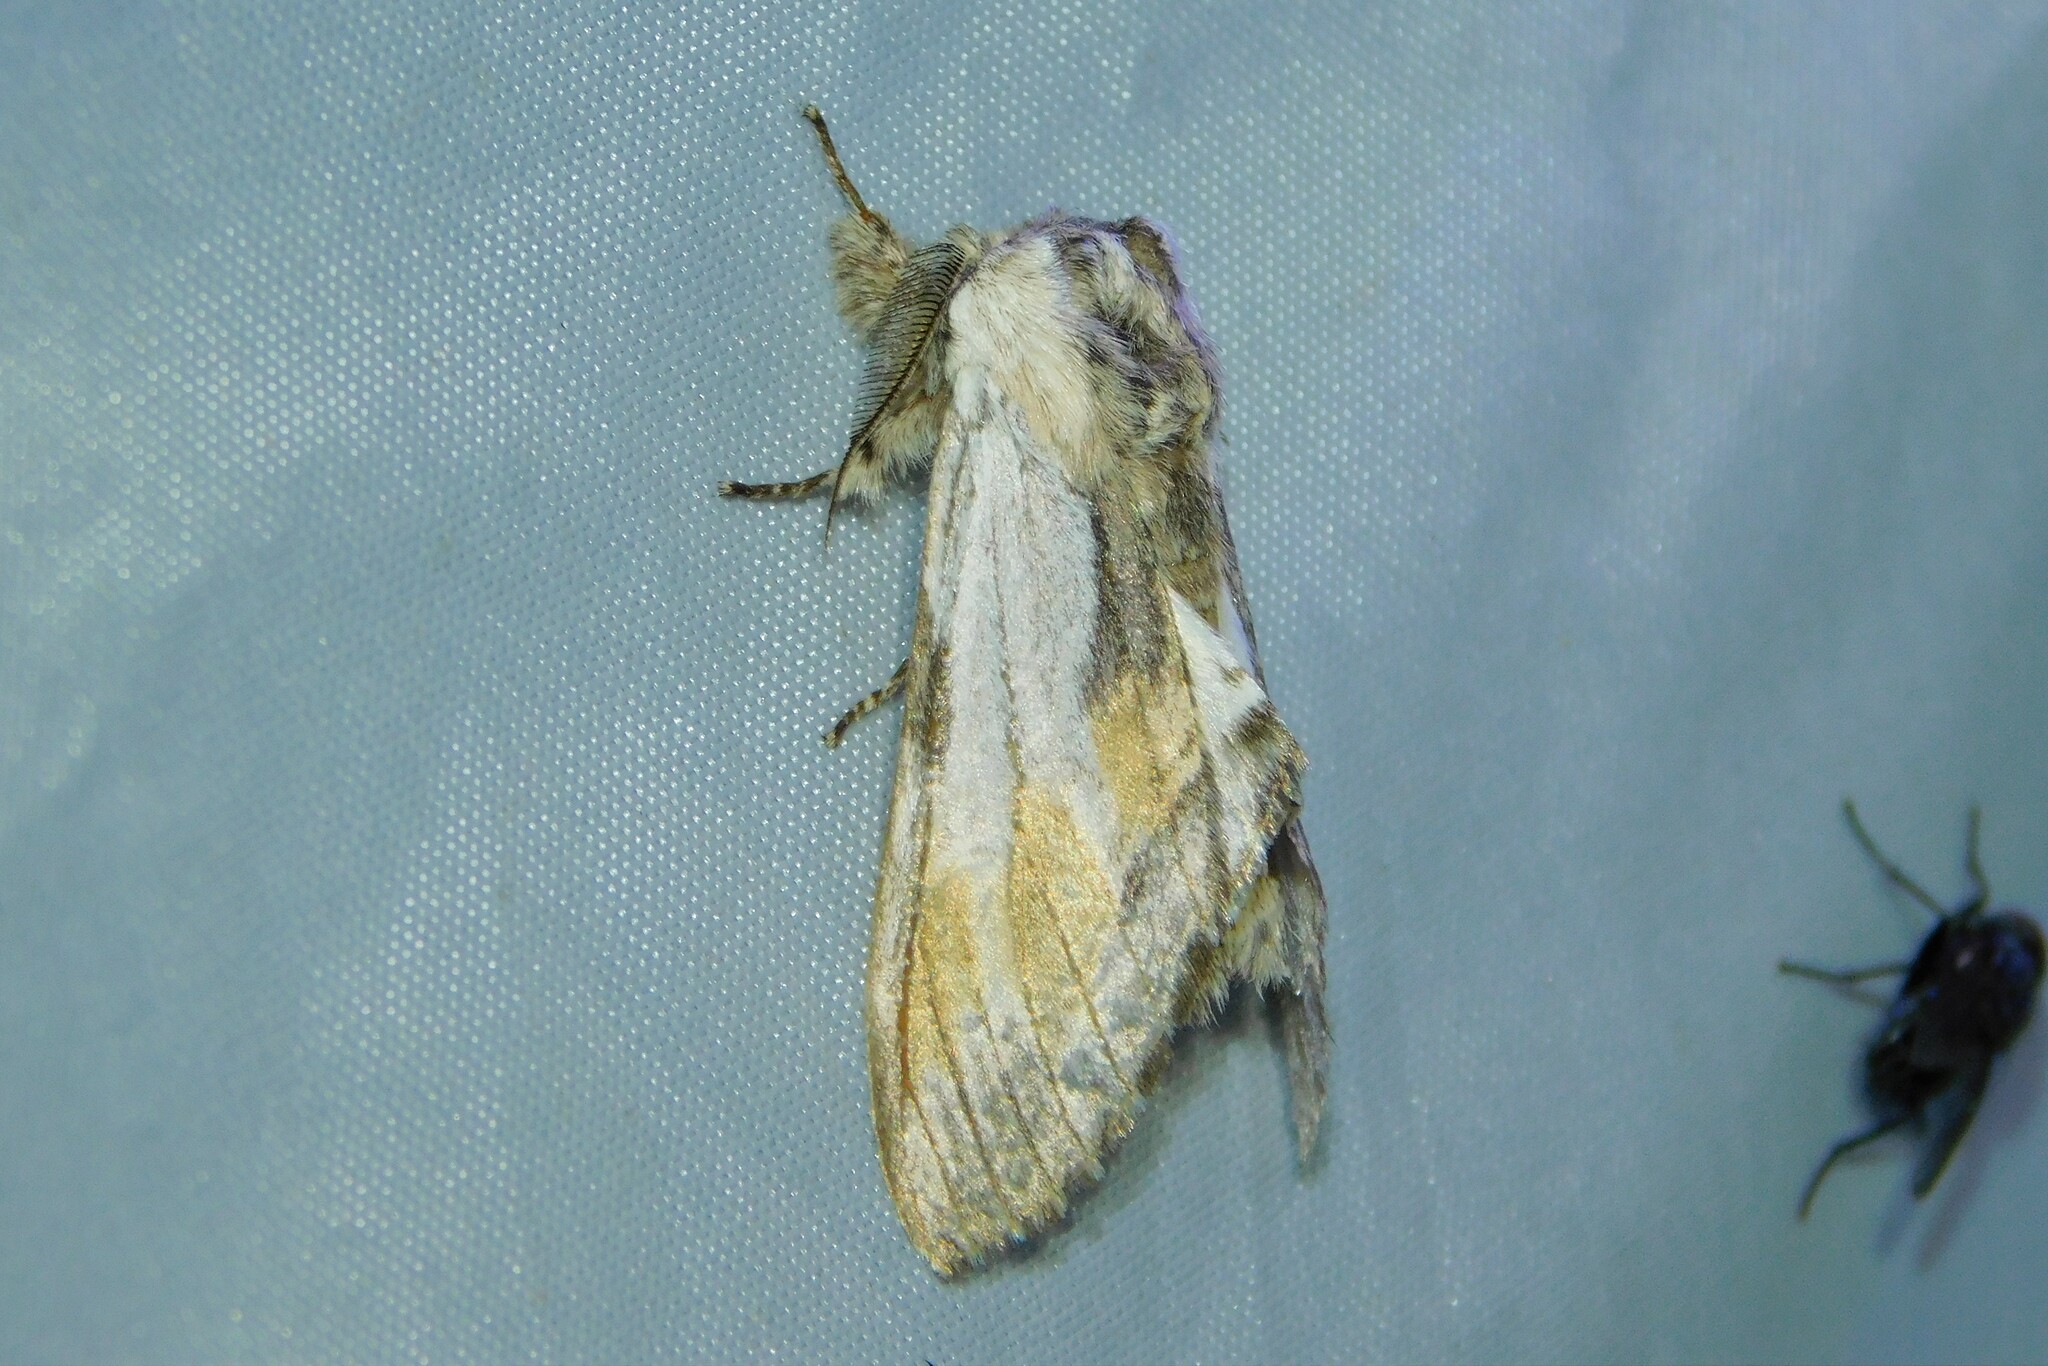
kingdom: Animalia
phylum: Arthropoda
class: Insecta
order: Lepidoptera
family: Notodontidae
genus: Harpyia
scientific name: Harpyia milhauseri
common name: Tawny prominent
